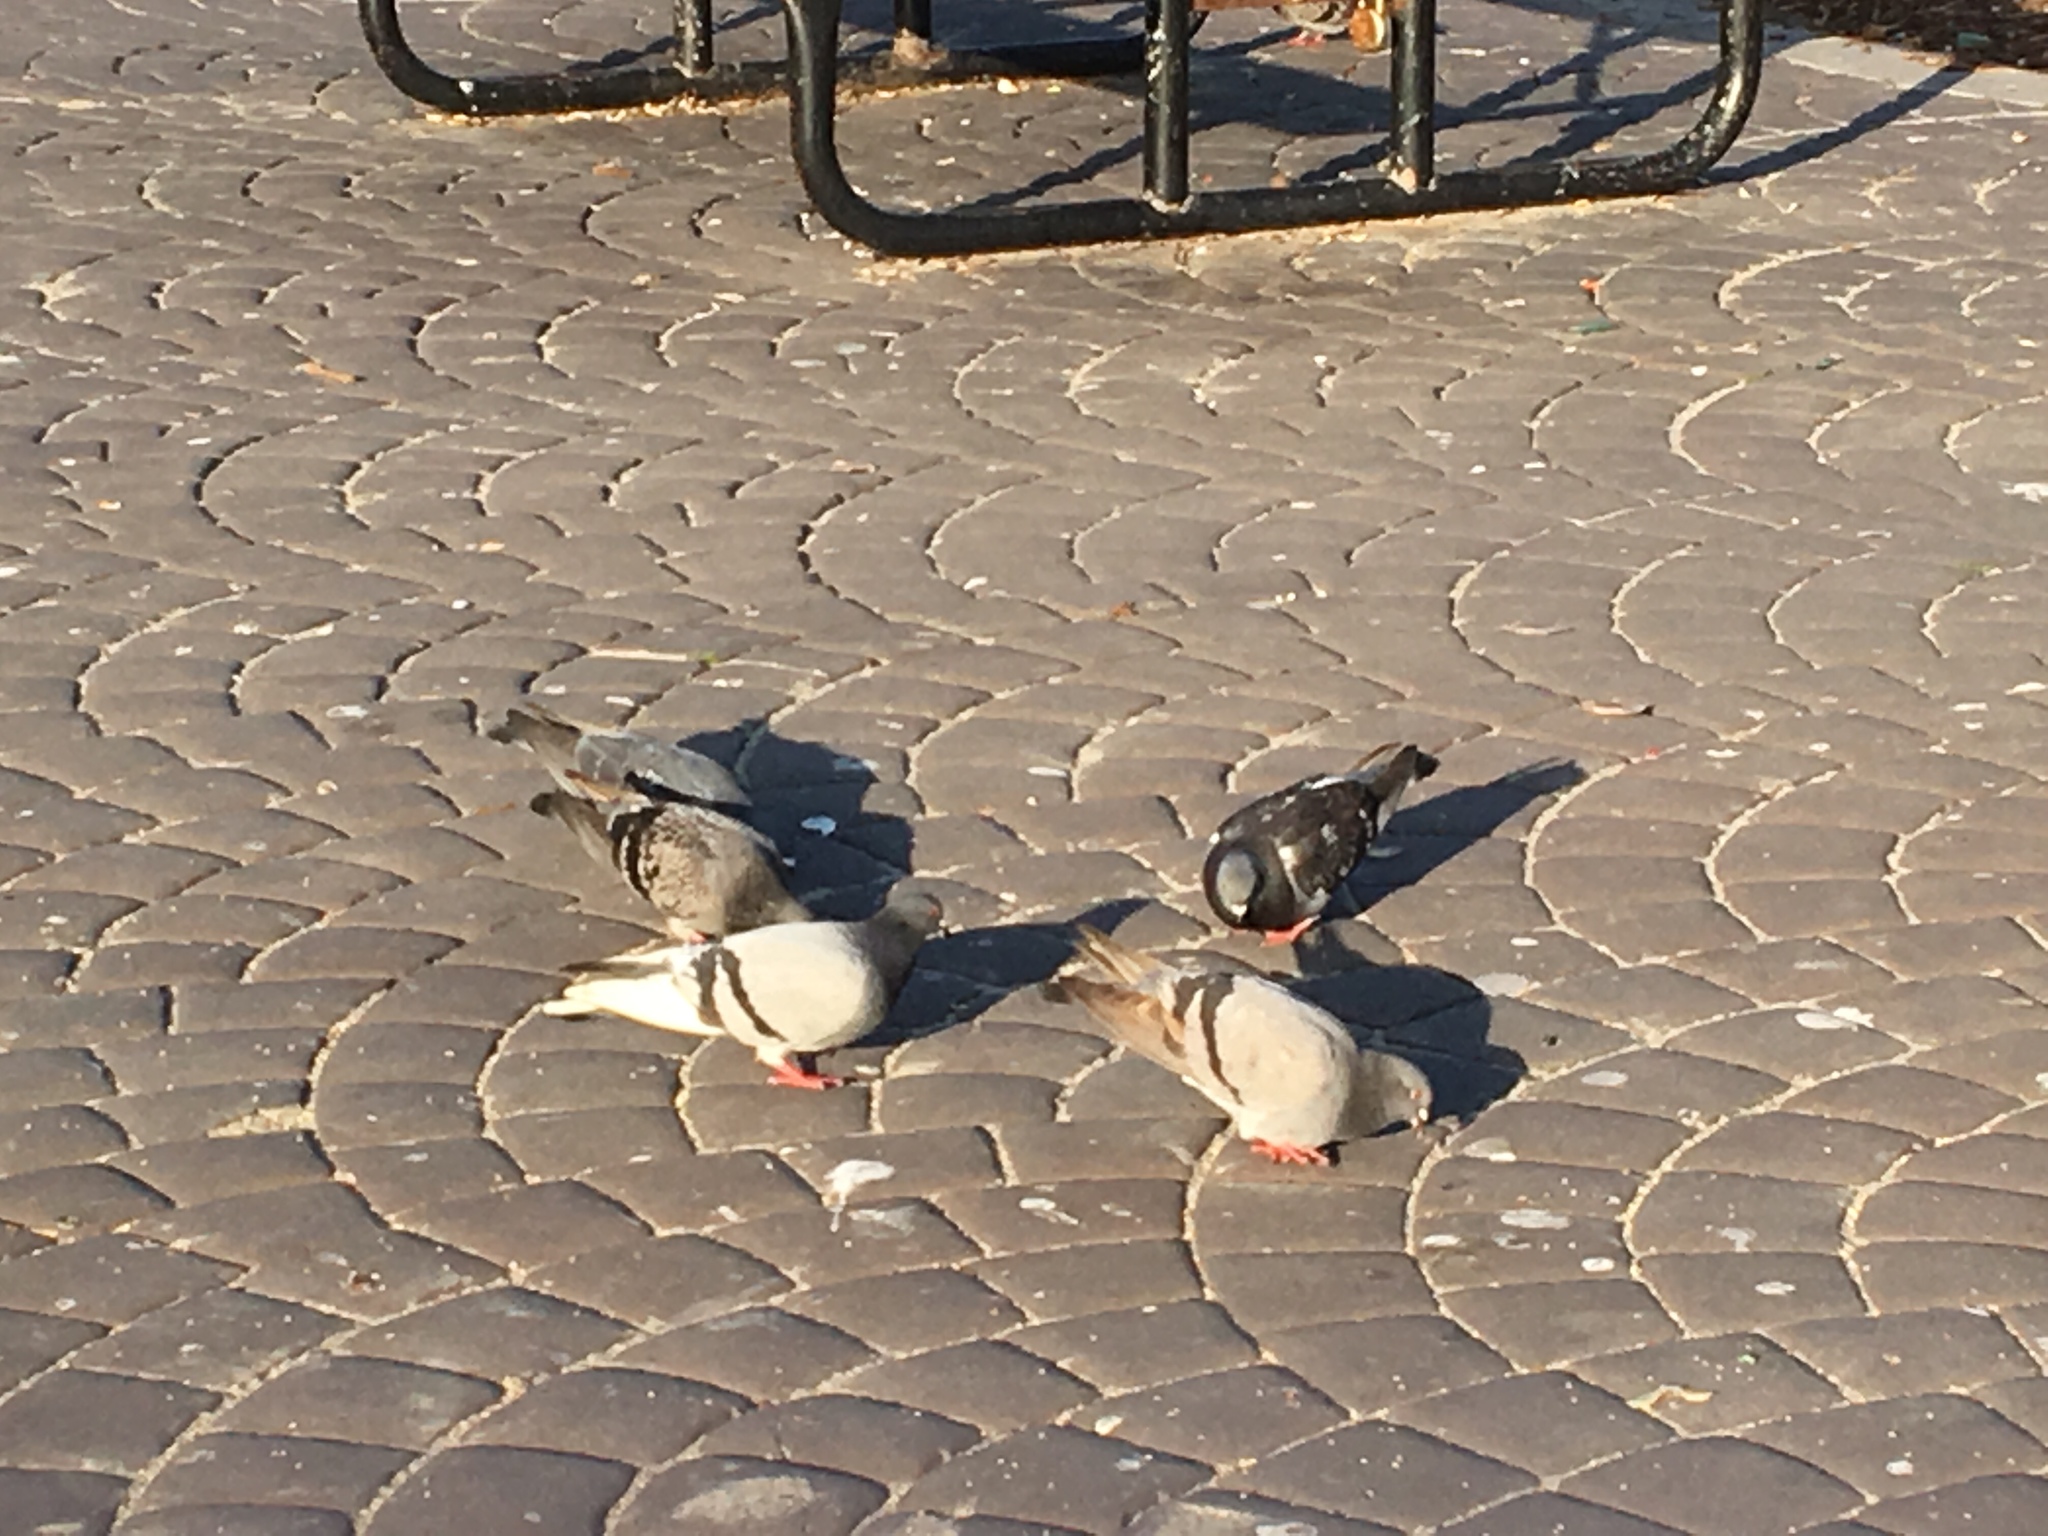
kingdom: Animalia
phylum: Chordata
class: Aves
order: Columbiformes
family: Columbidae
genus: Columba
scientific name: Columba livia
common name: Rock pigeon
